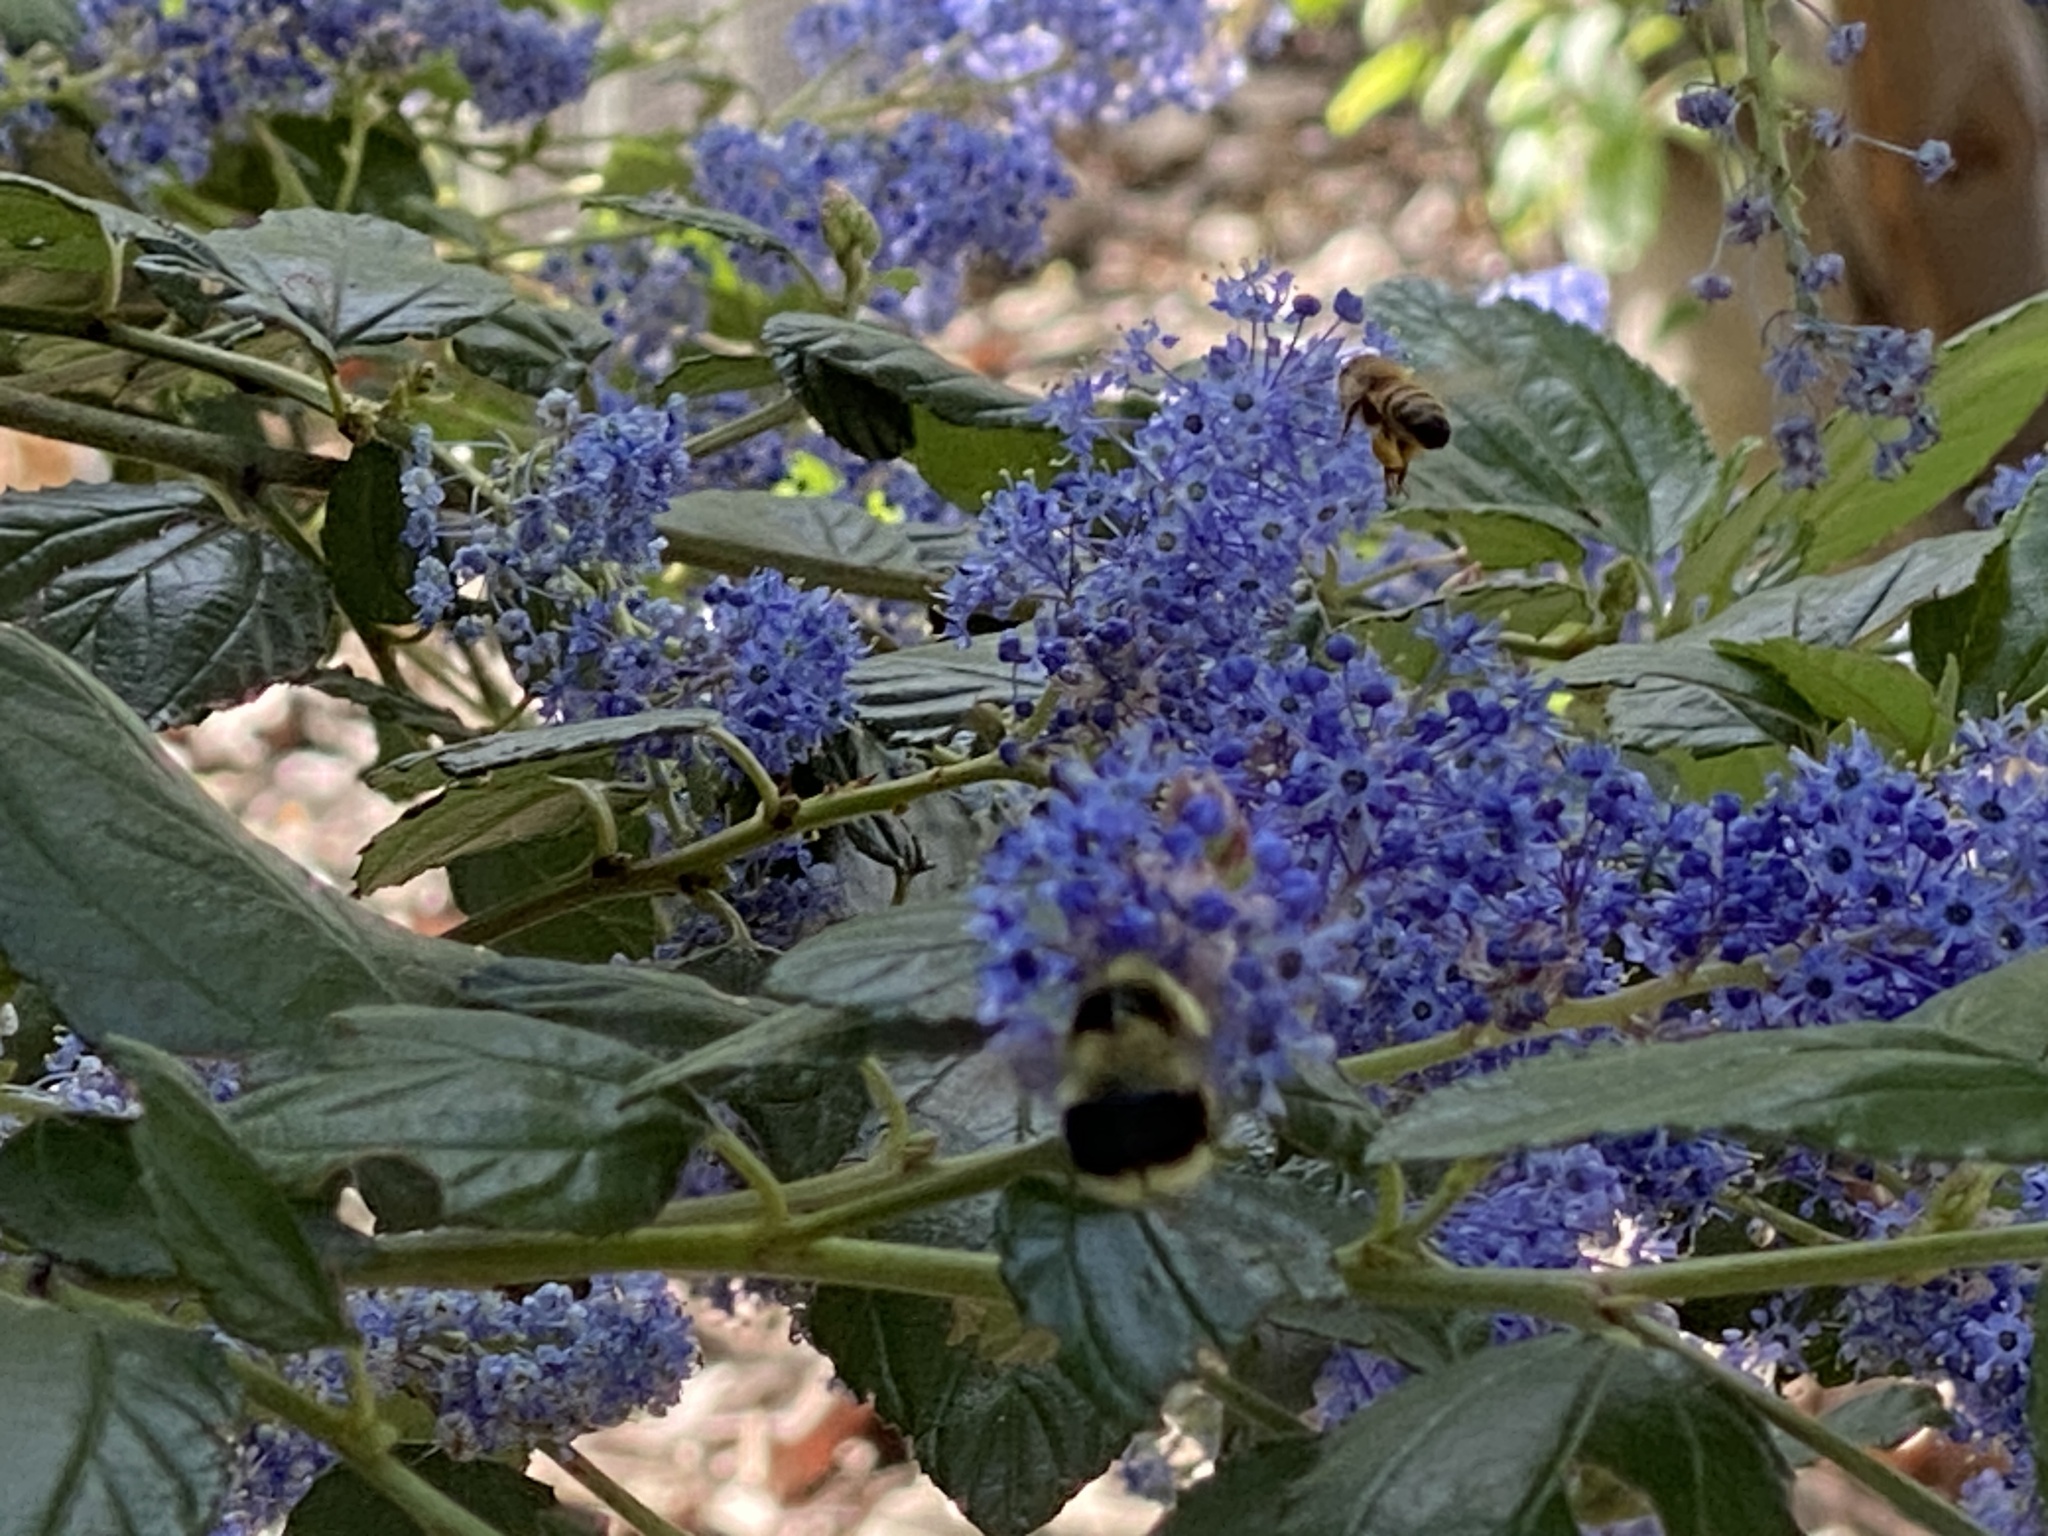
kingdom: Animalia
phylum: Arthropoda
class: Insecta
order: Hymenoptera
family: Apidae
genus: Bombus
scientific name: Bombus melanopygus
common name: Black tail bumble bee
